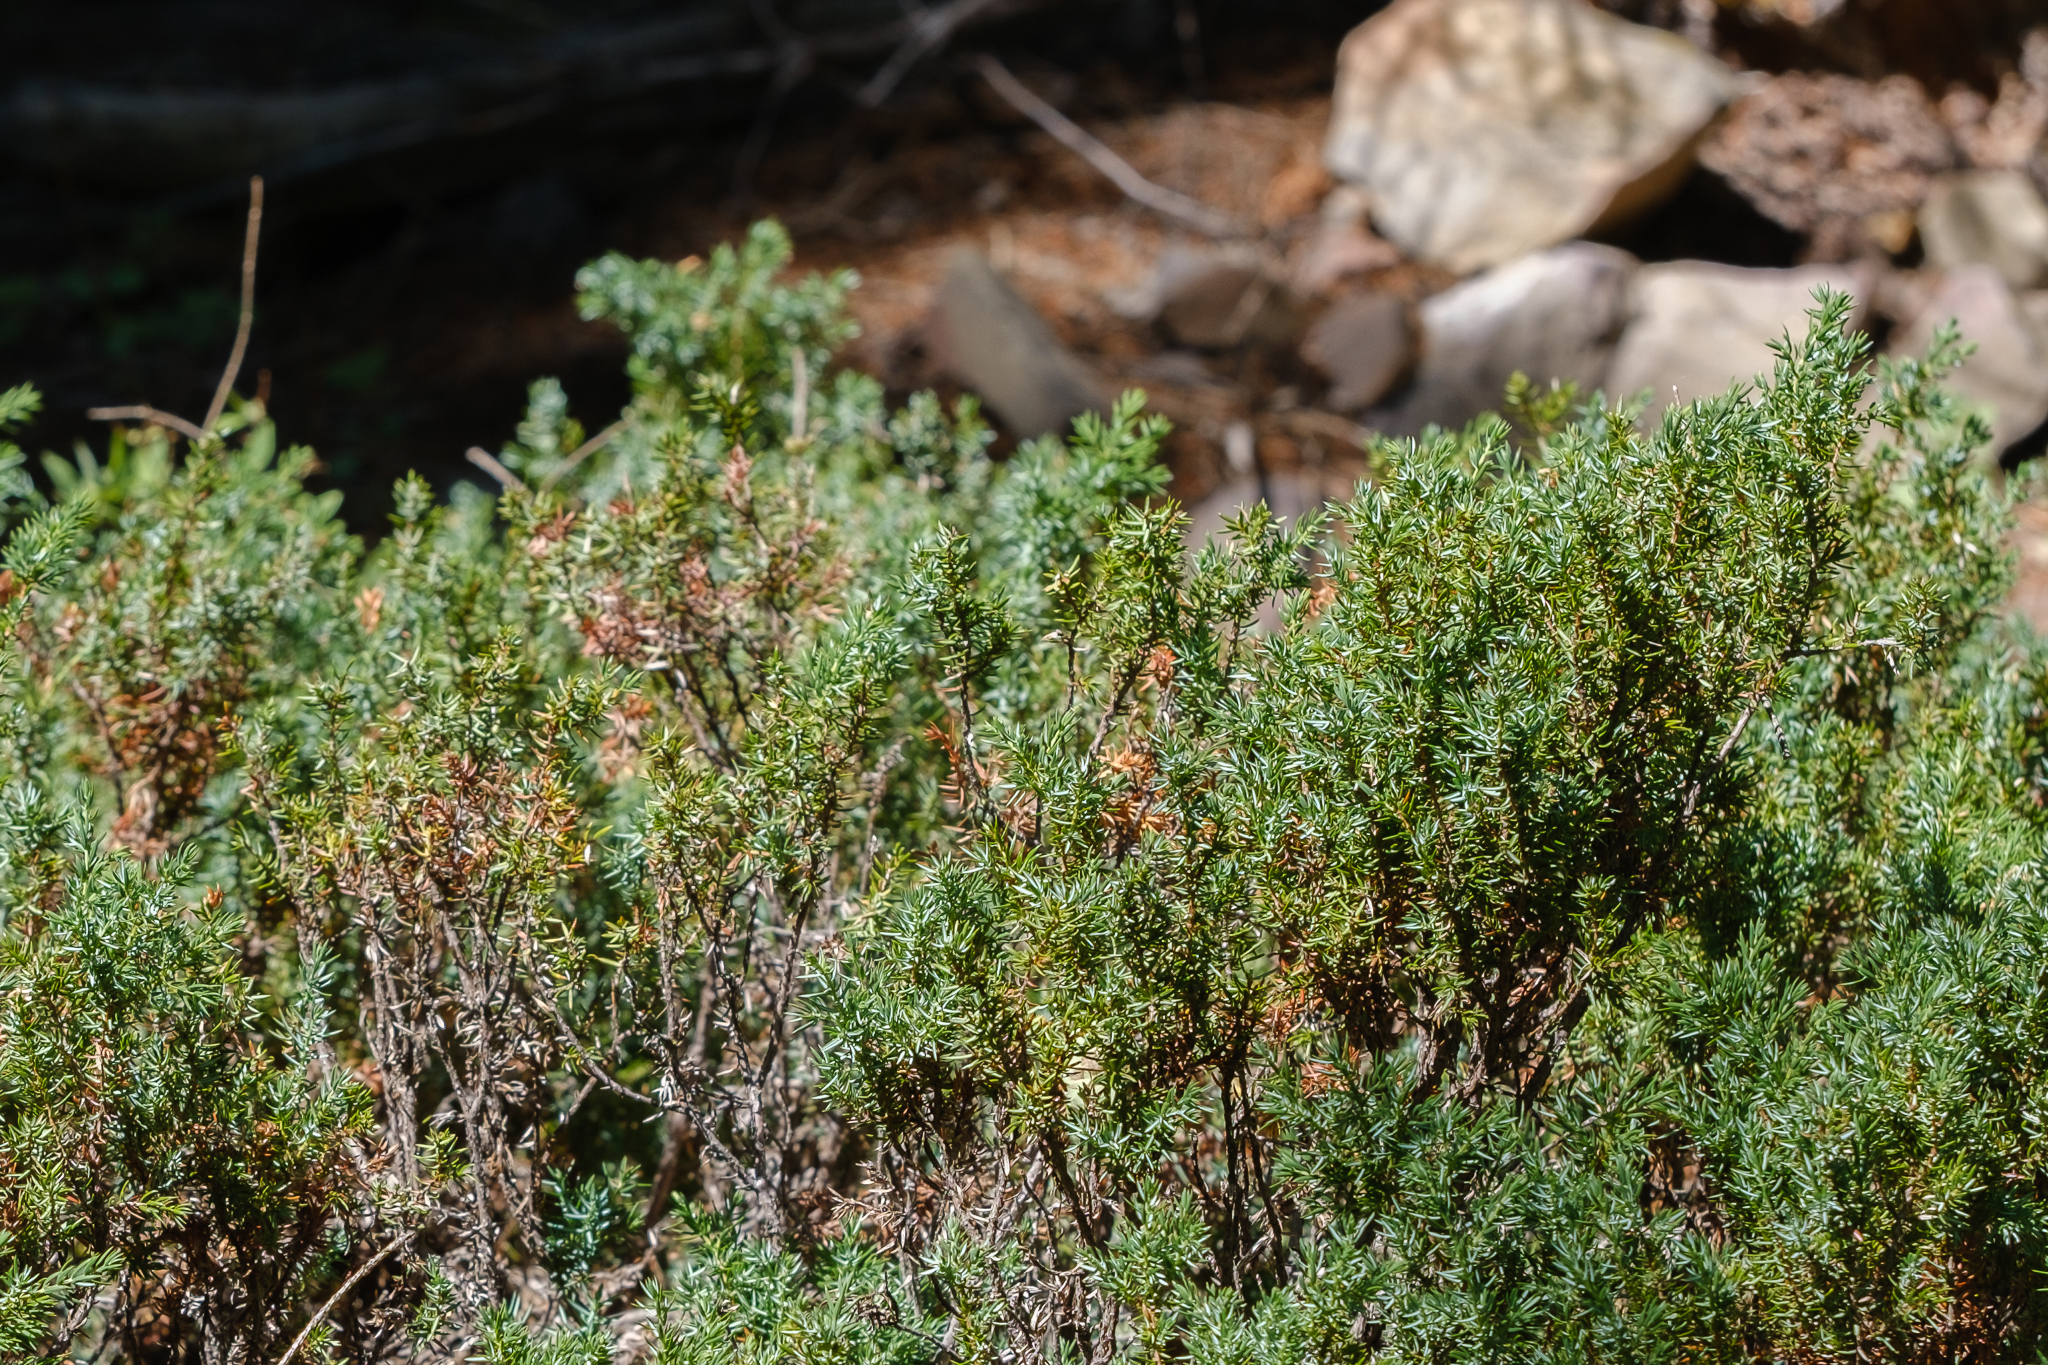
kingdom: Plantae
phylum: Tracheophyta
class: Pinopsida
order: Pinales
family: Cupressaceae
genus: Juniperus
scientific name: Juniperus communis
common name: Common juniper
